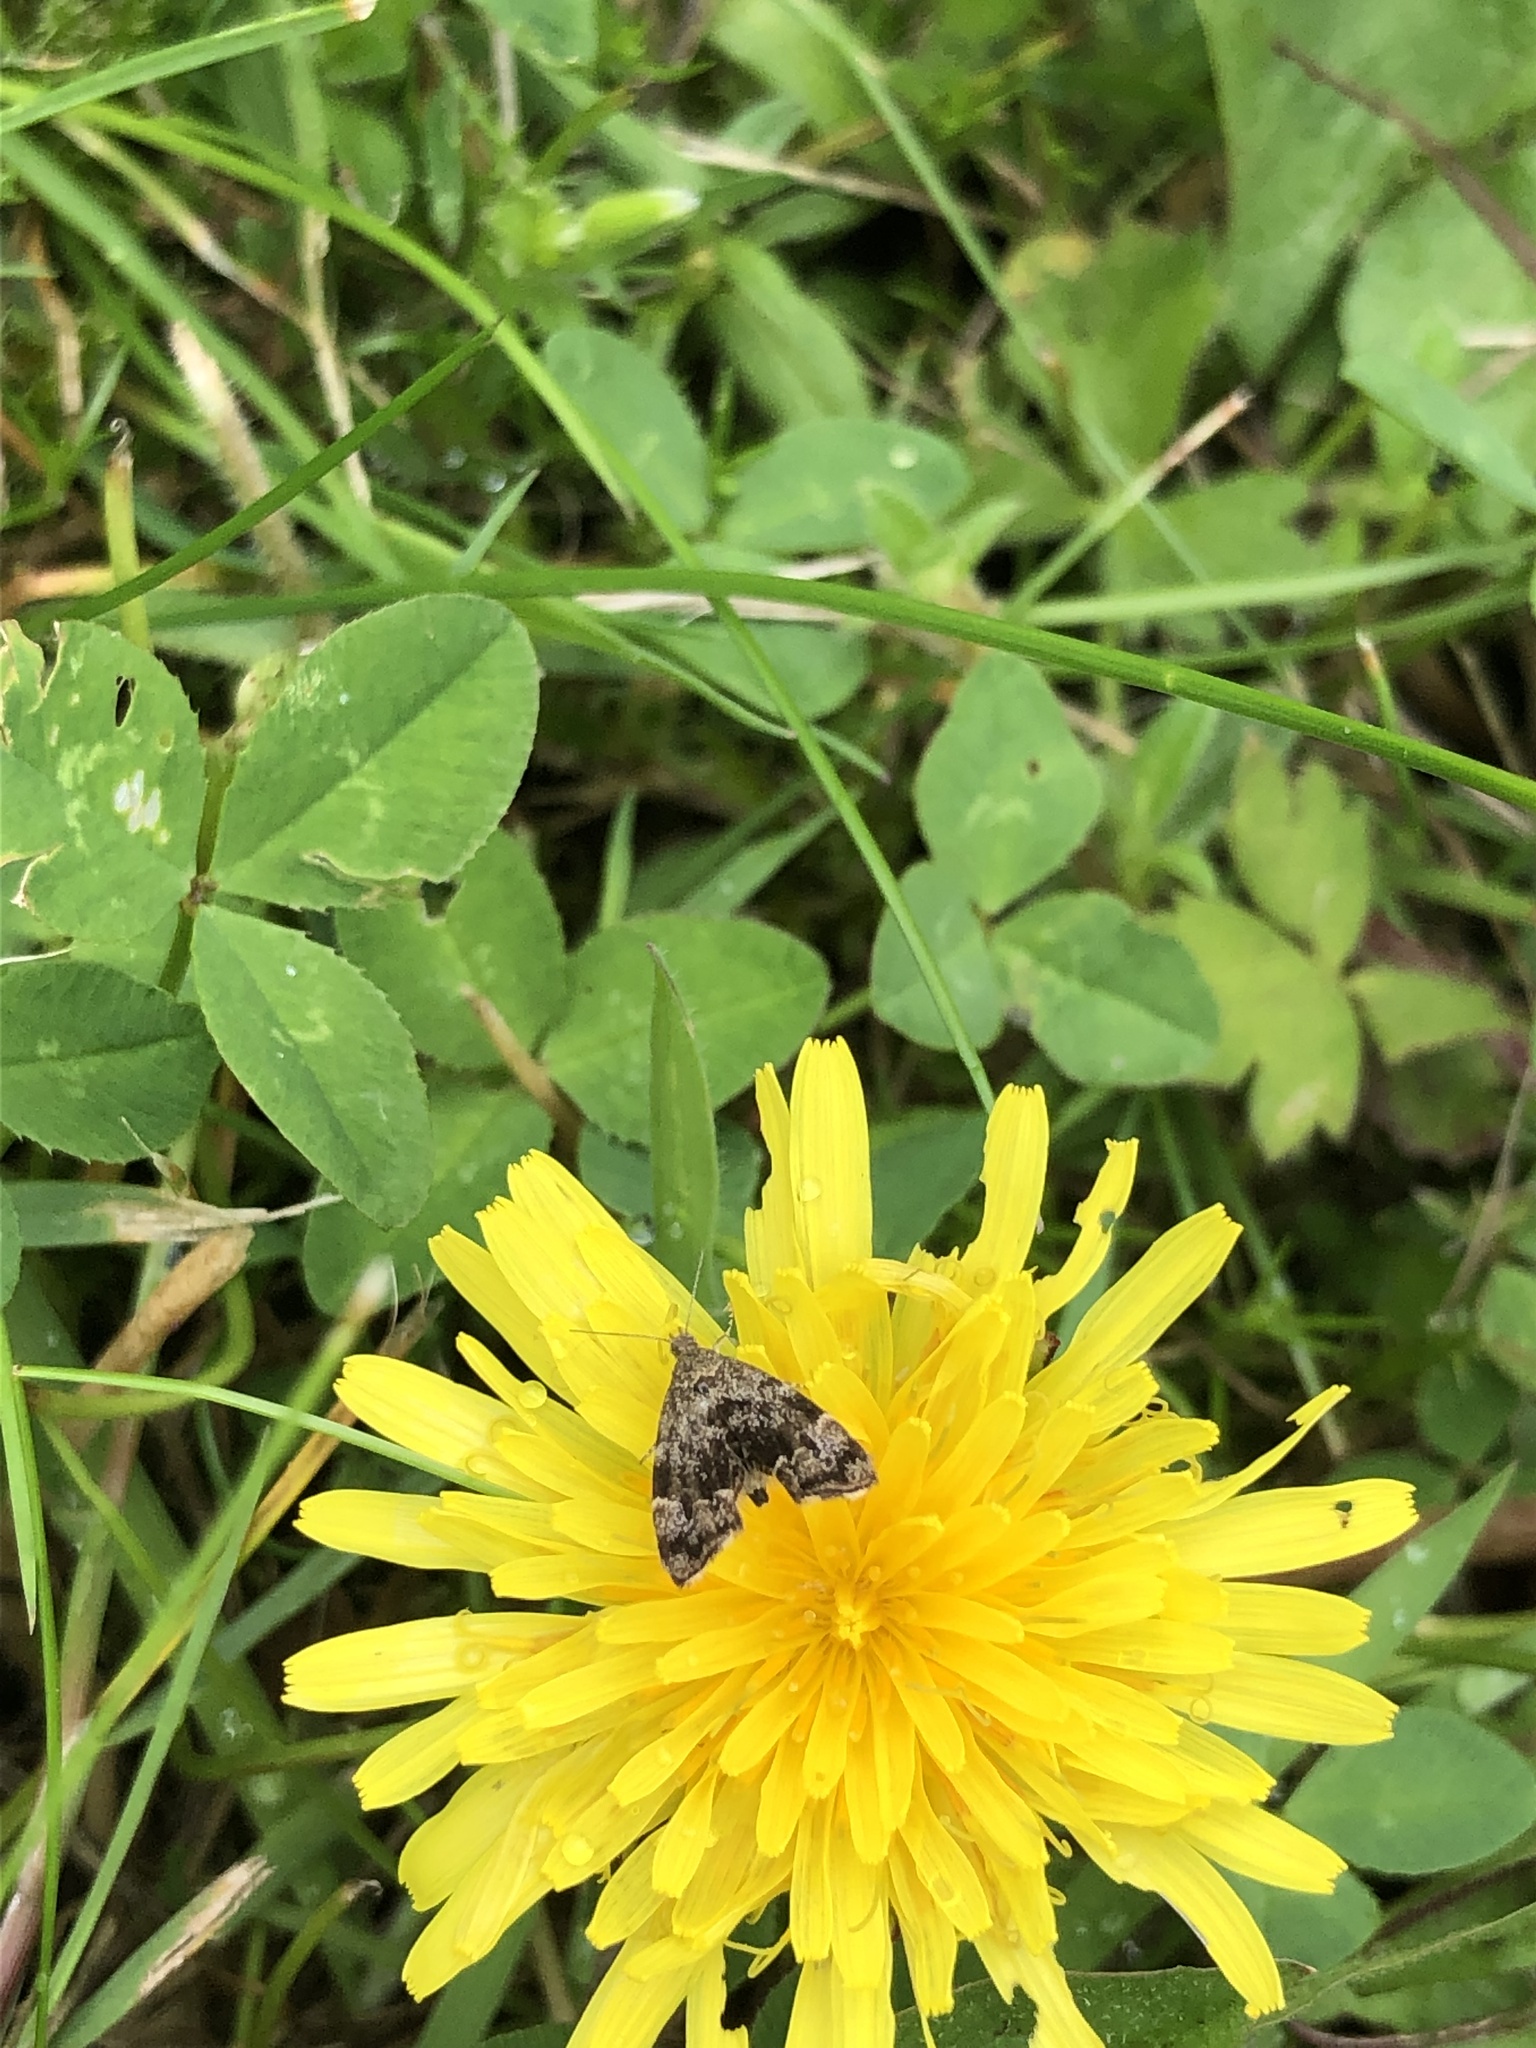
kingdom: Animalia
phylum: Arthropoda
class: Insecta
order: Lepidoptera
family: Choreutidae
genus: Anthophila
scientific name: Anthophila fabriciana
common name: Nettle-tap
